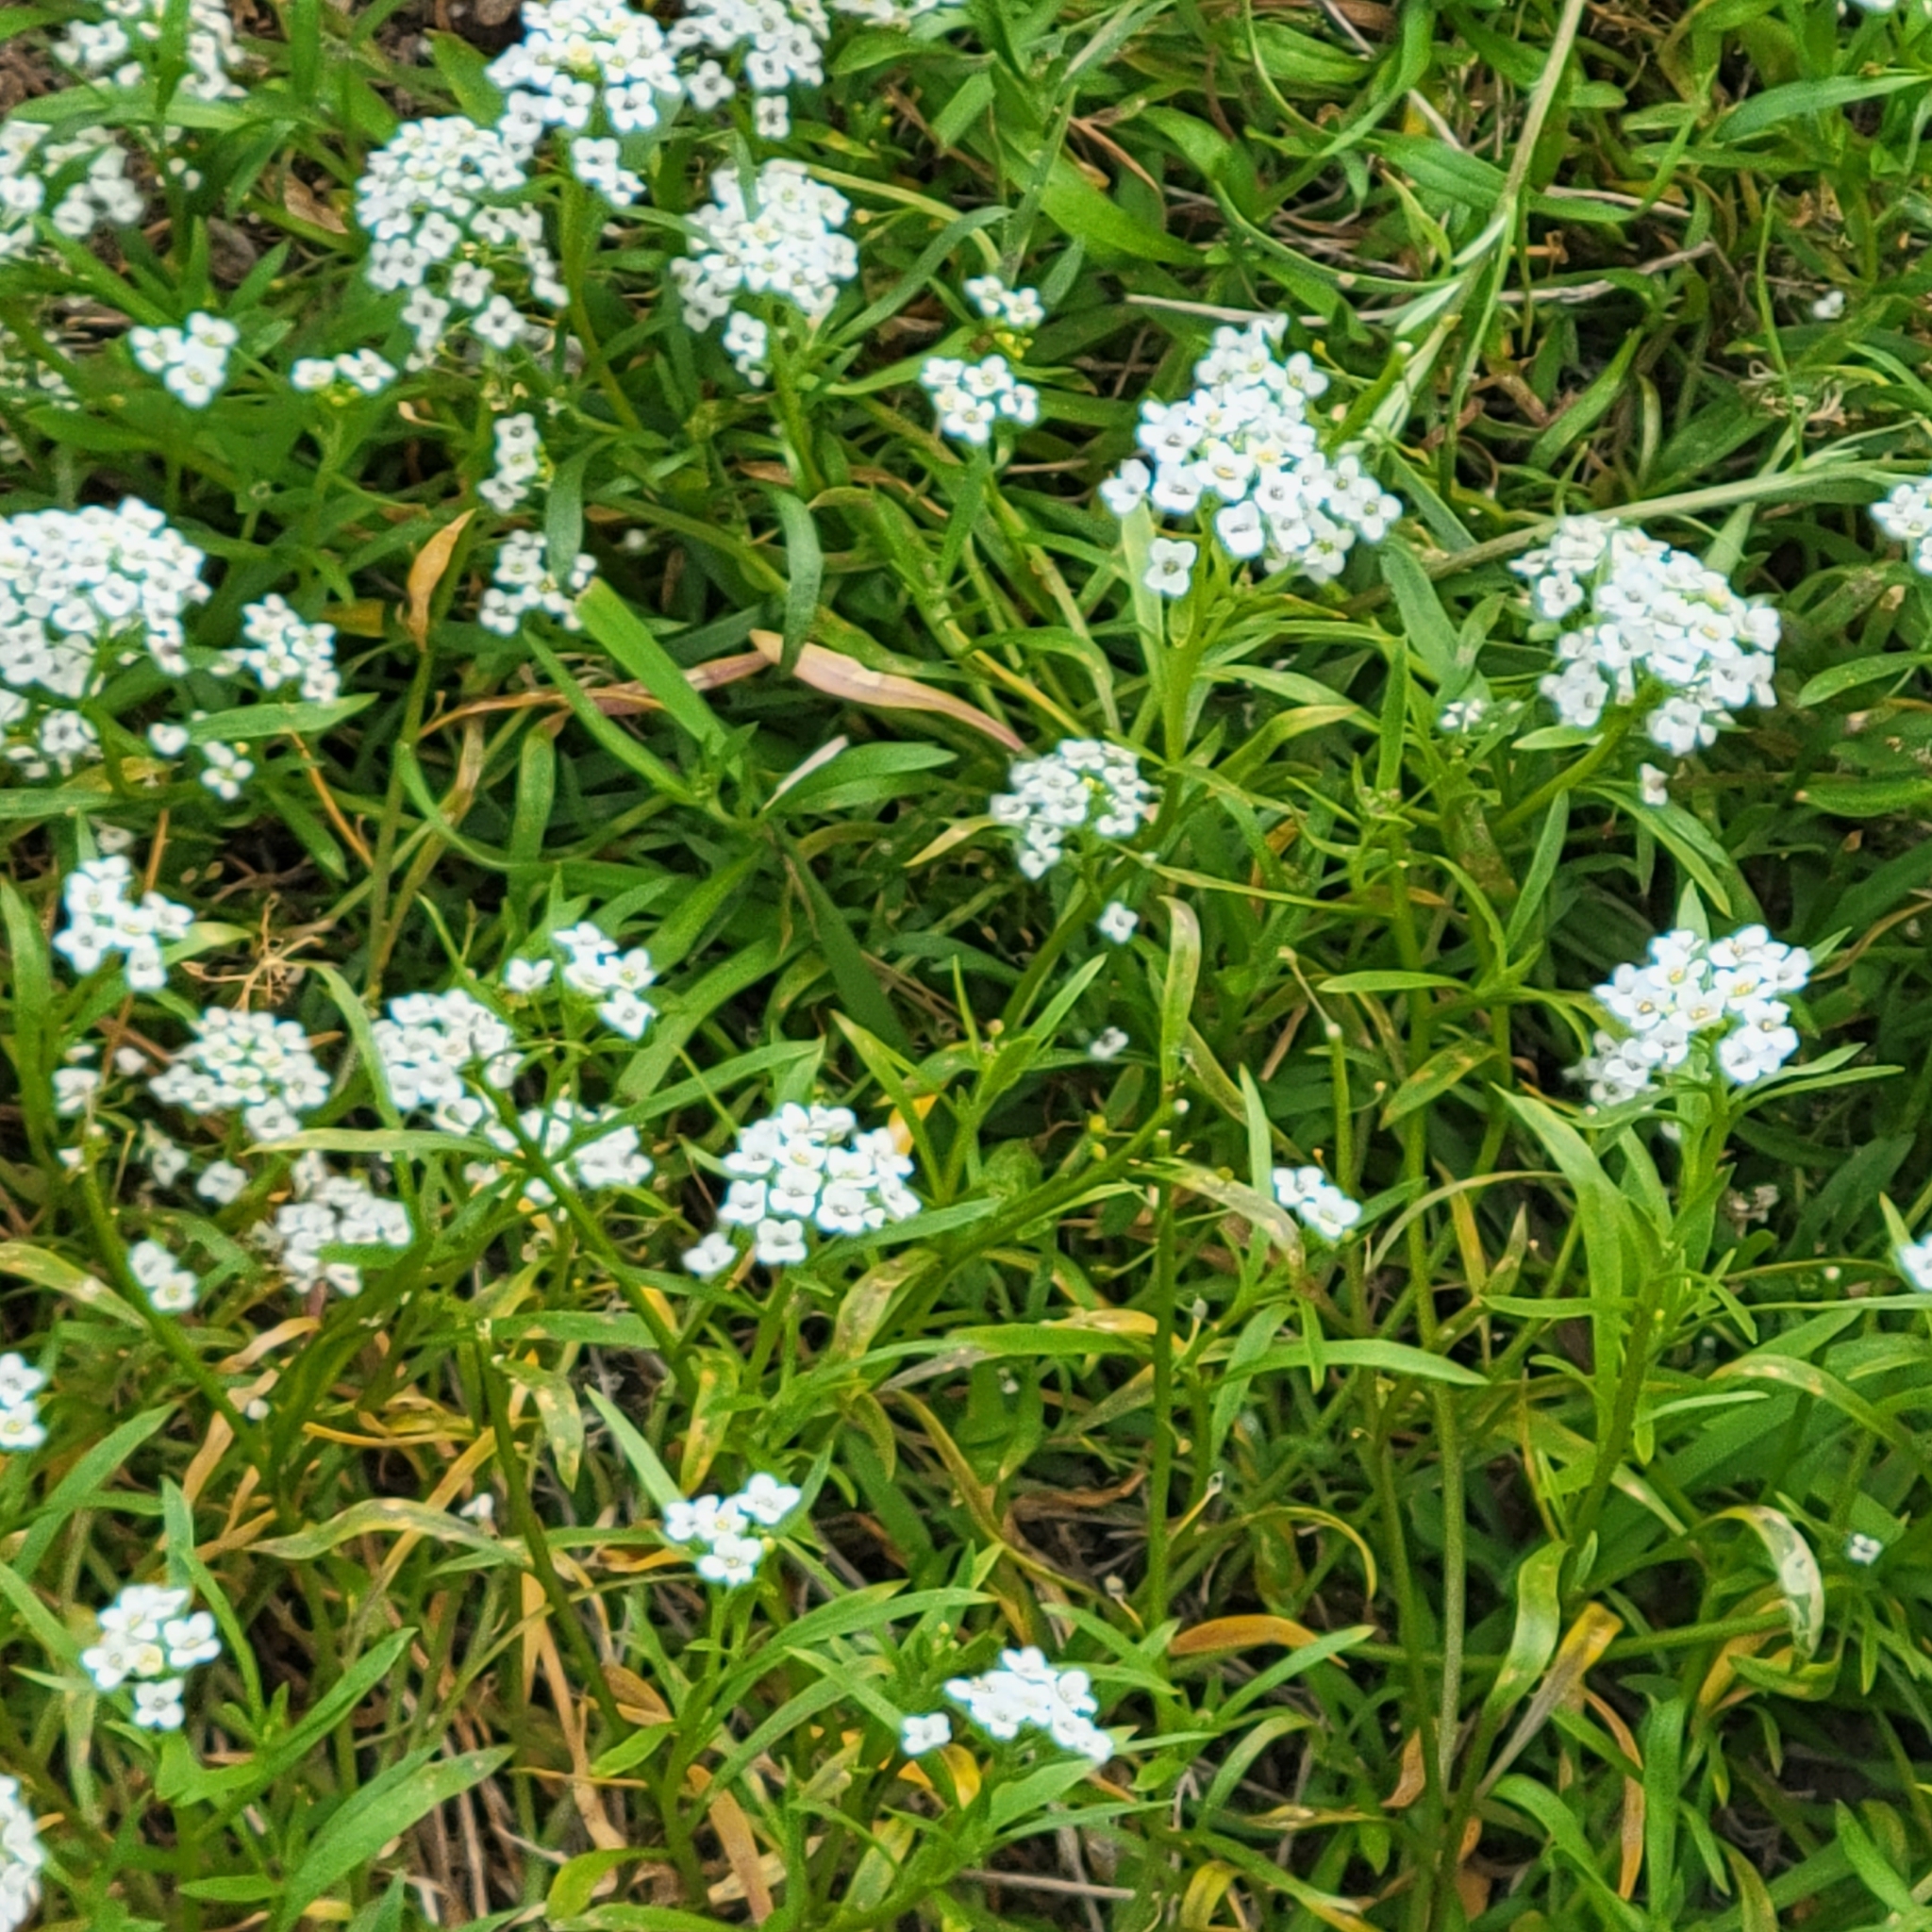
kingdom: Plantae
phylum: Tracheophyta
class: Magnoliopsida
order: Brassicales
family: Brassicaceae
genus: Lobularia
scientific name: Lobularia maritima
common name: Sweet alison
